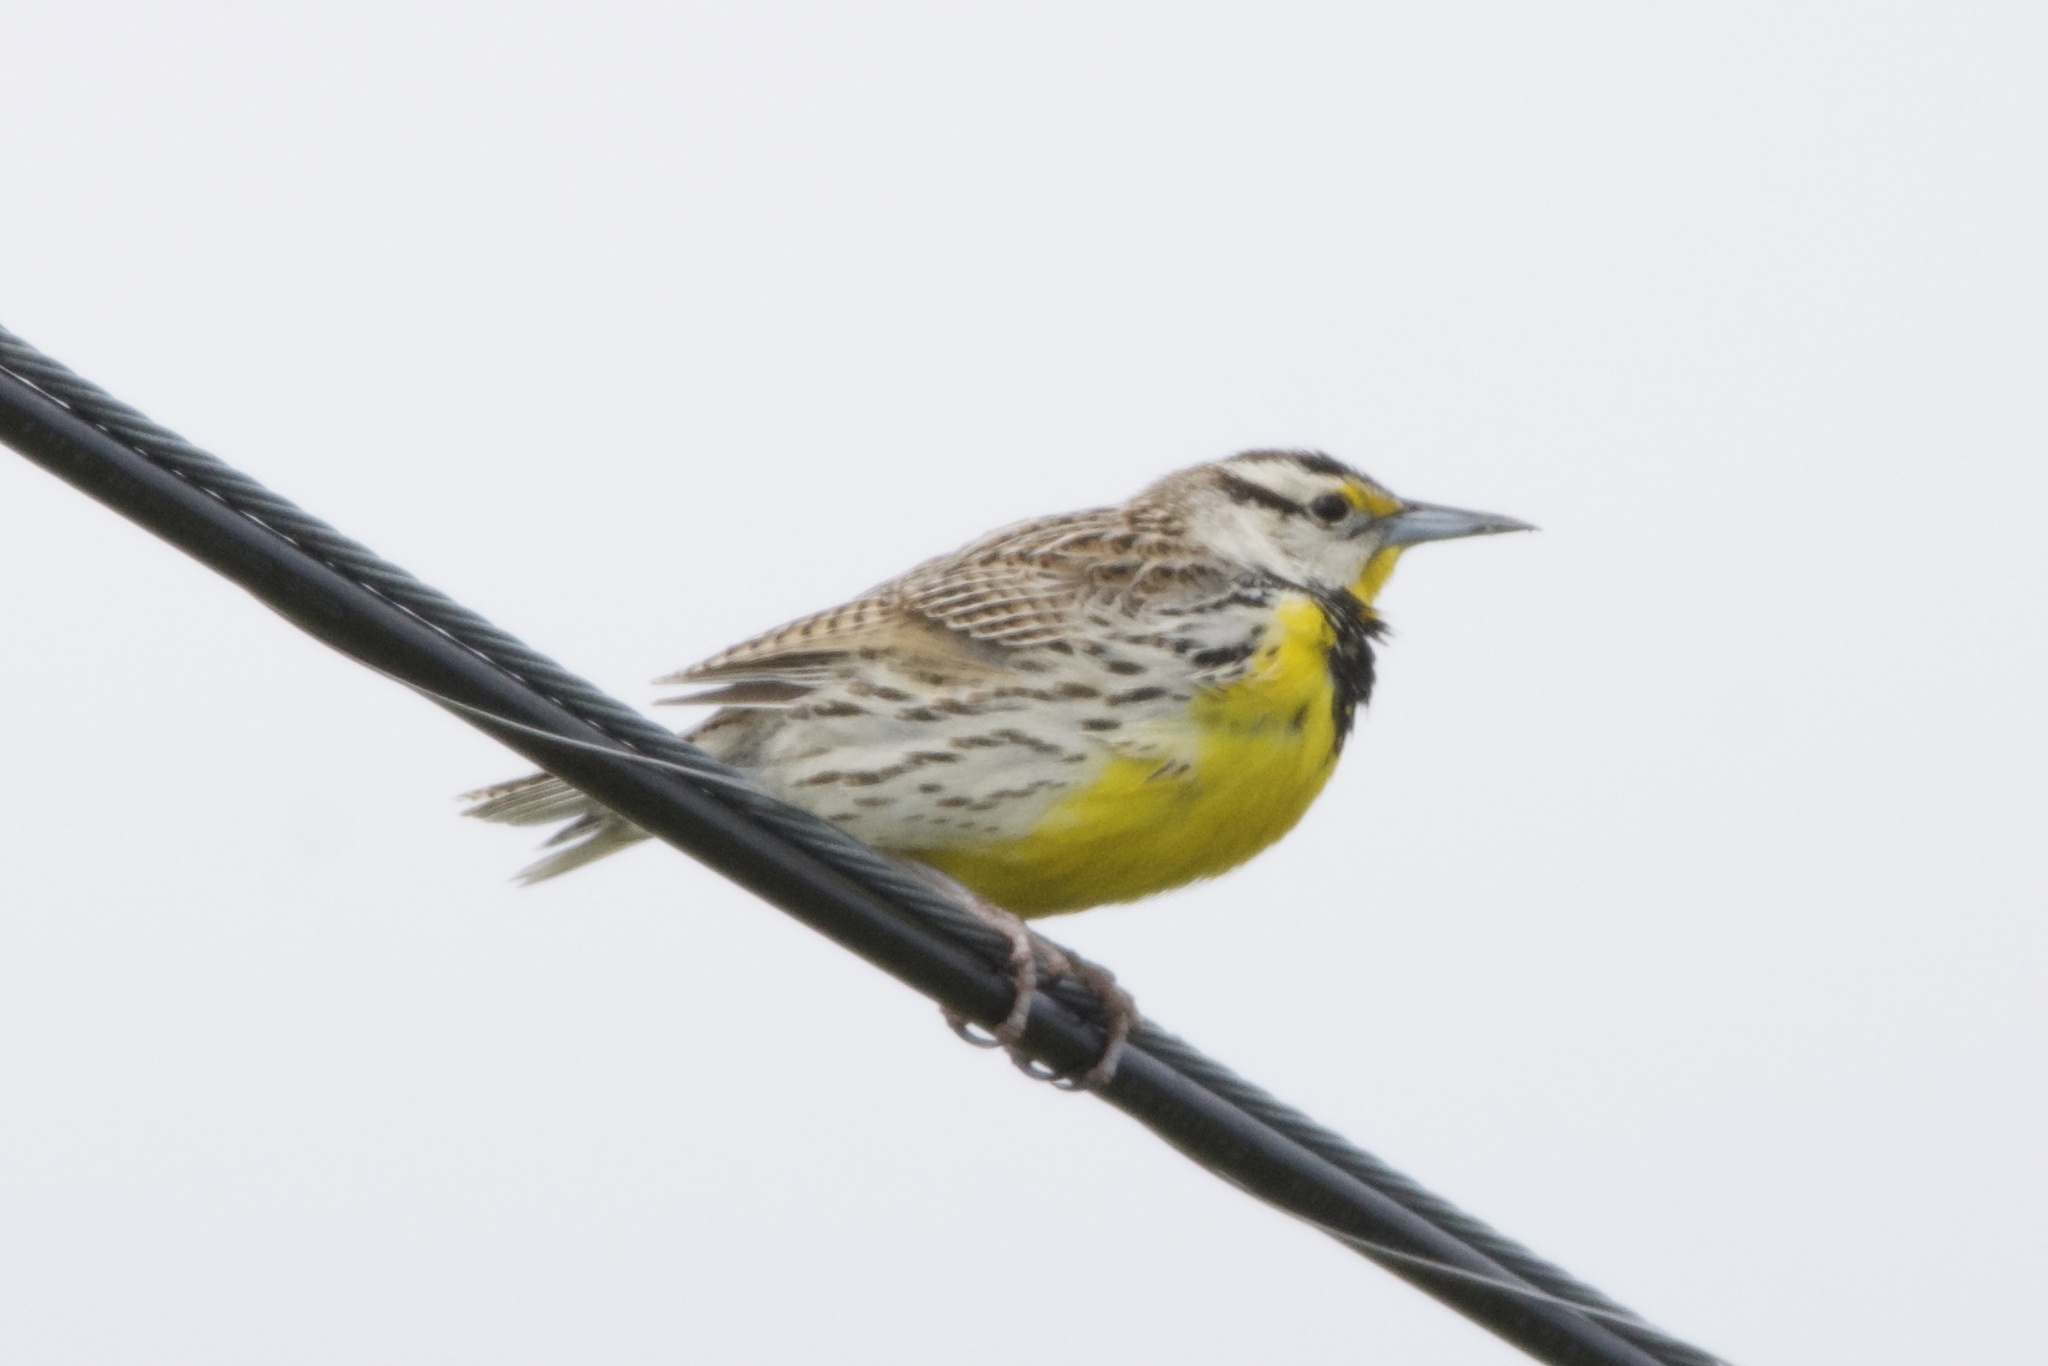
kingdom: Animalia
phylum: Chordata
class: Aves
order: Passeriformes
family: Icteridae
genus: Sturnella
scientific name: Sturnella magna
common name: Eastern meadowlark
